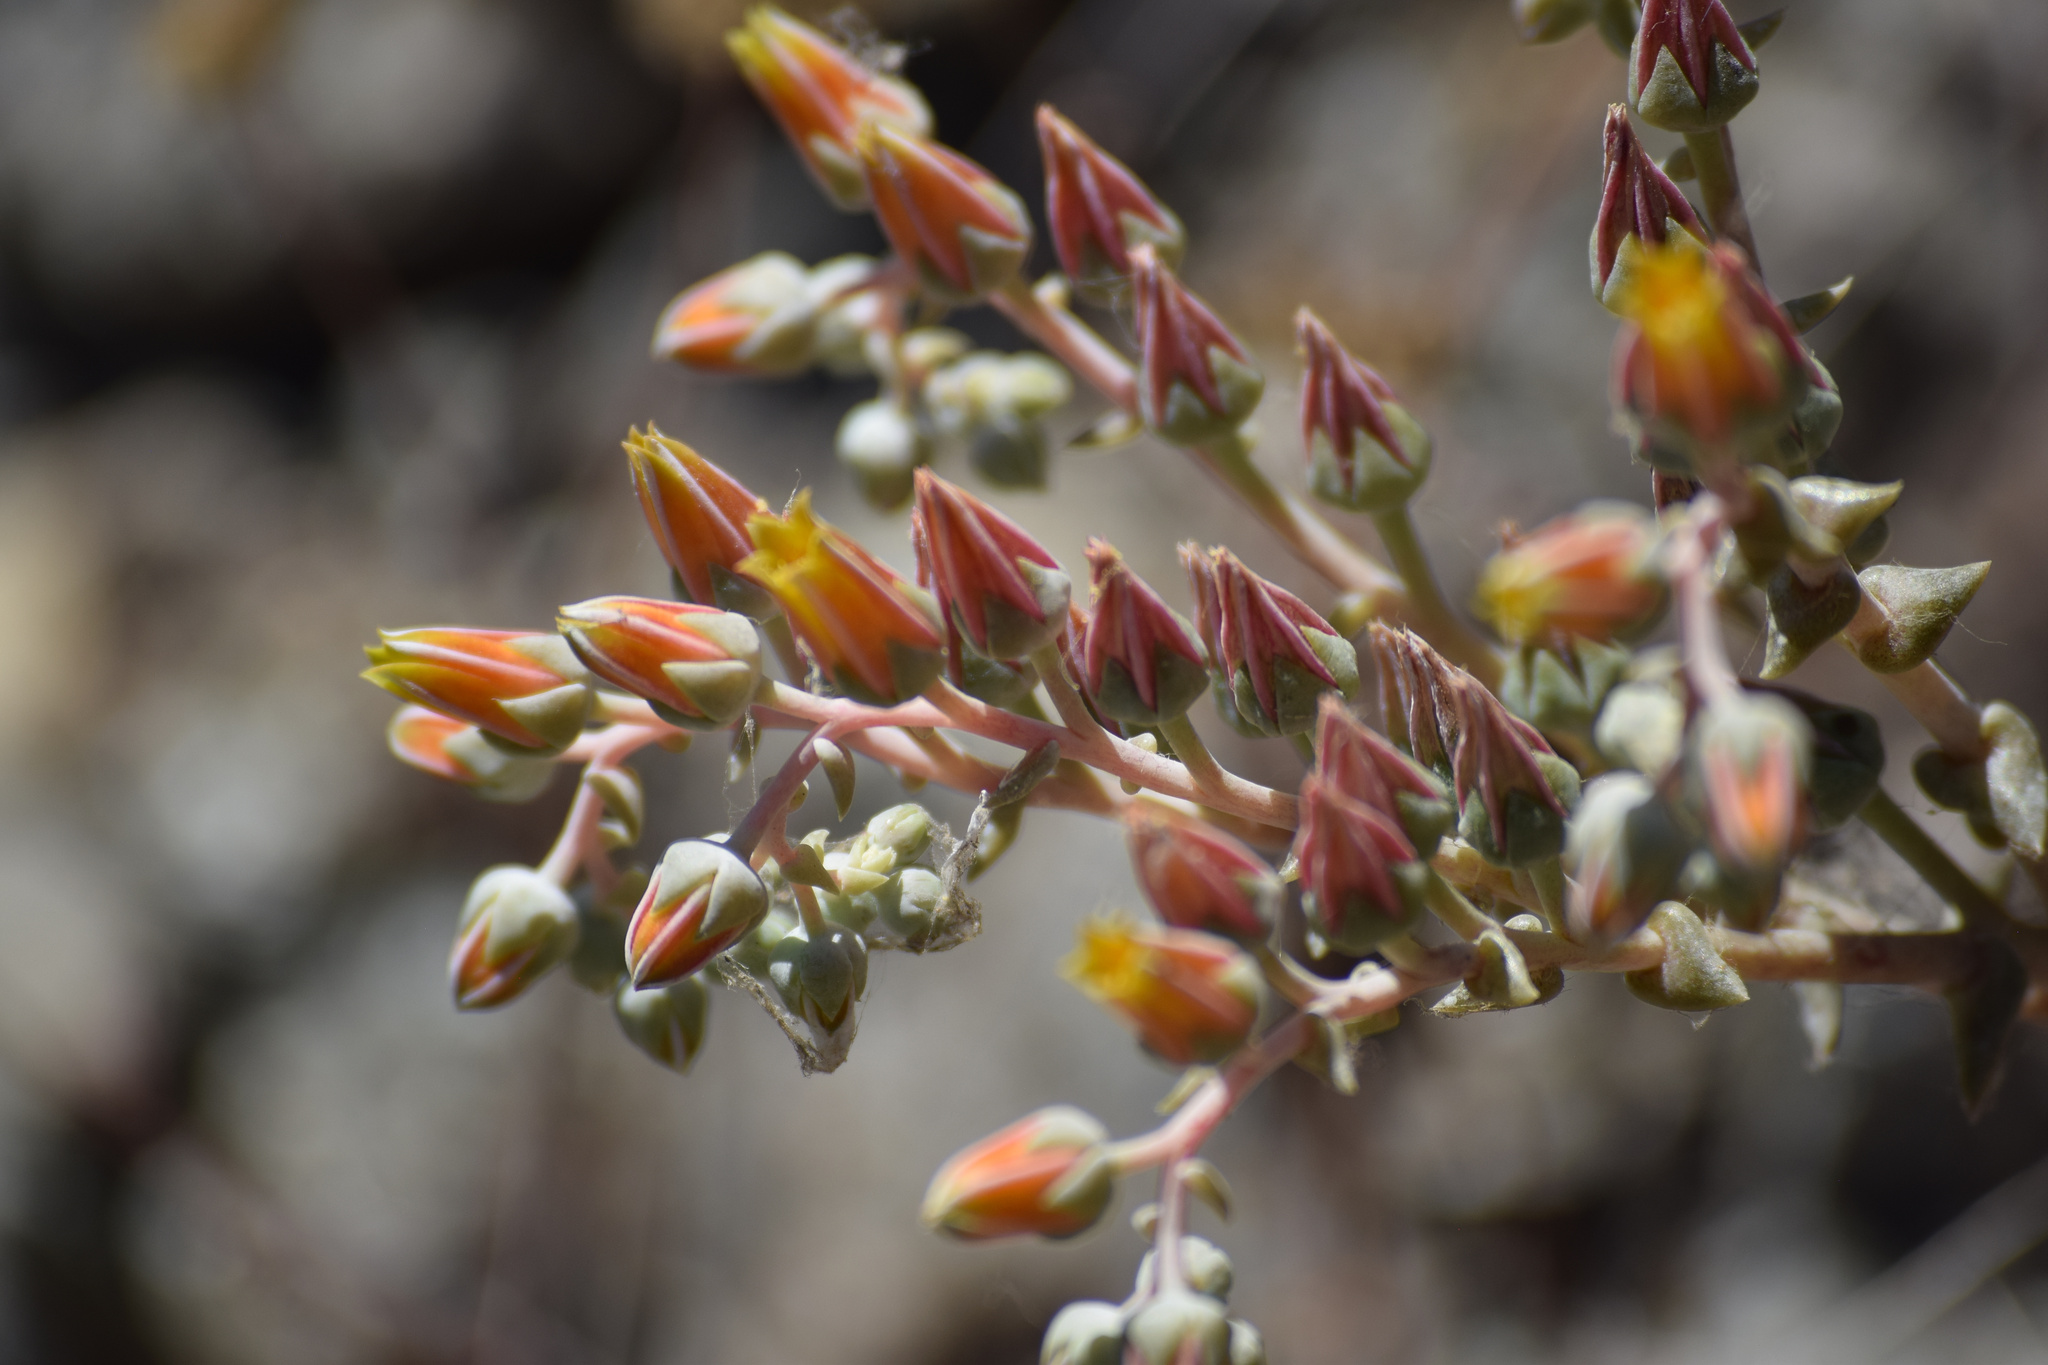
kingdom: Plantae
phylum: Tracheophyta
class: Magnoliopsida
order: Saxifragales
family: Crassulaceae
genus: Dudleya
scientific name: Dudleya lanceolata
